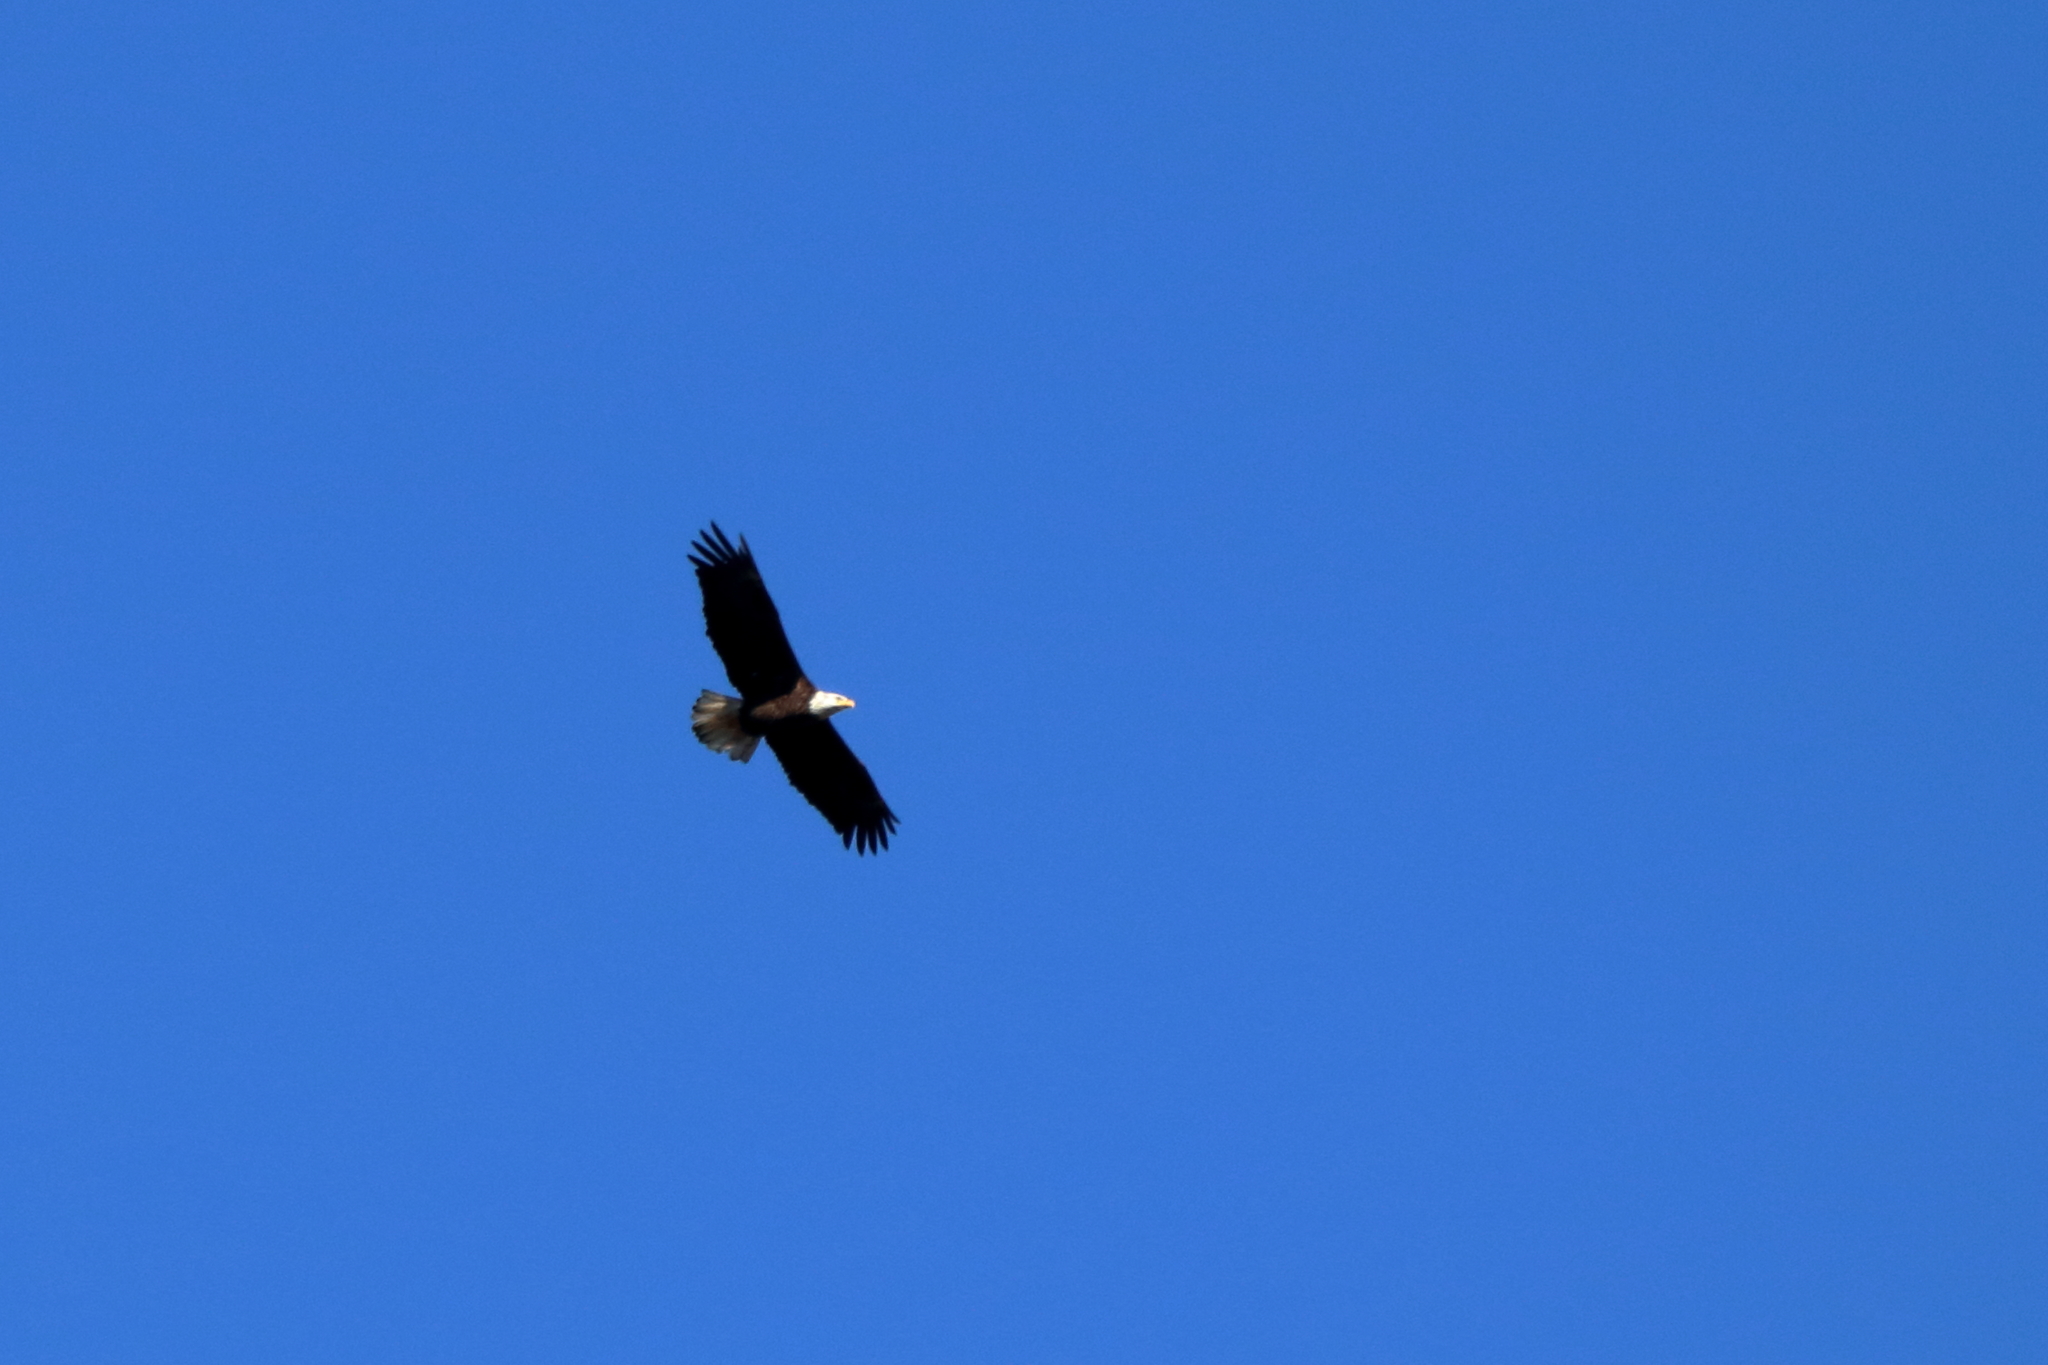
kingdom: Animalia
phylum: Chordata
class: Aves
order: Accipitriformes
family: Accipitridae
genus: Haliaeetus
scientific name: Haliaeetus leucocephalus
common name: Bald eagle
